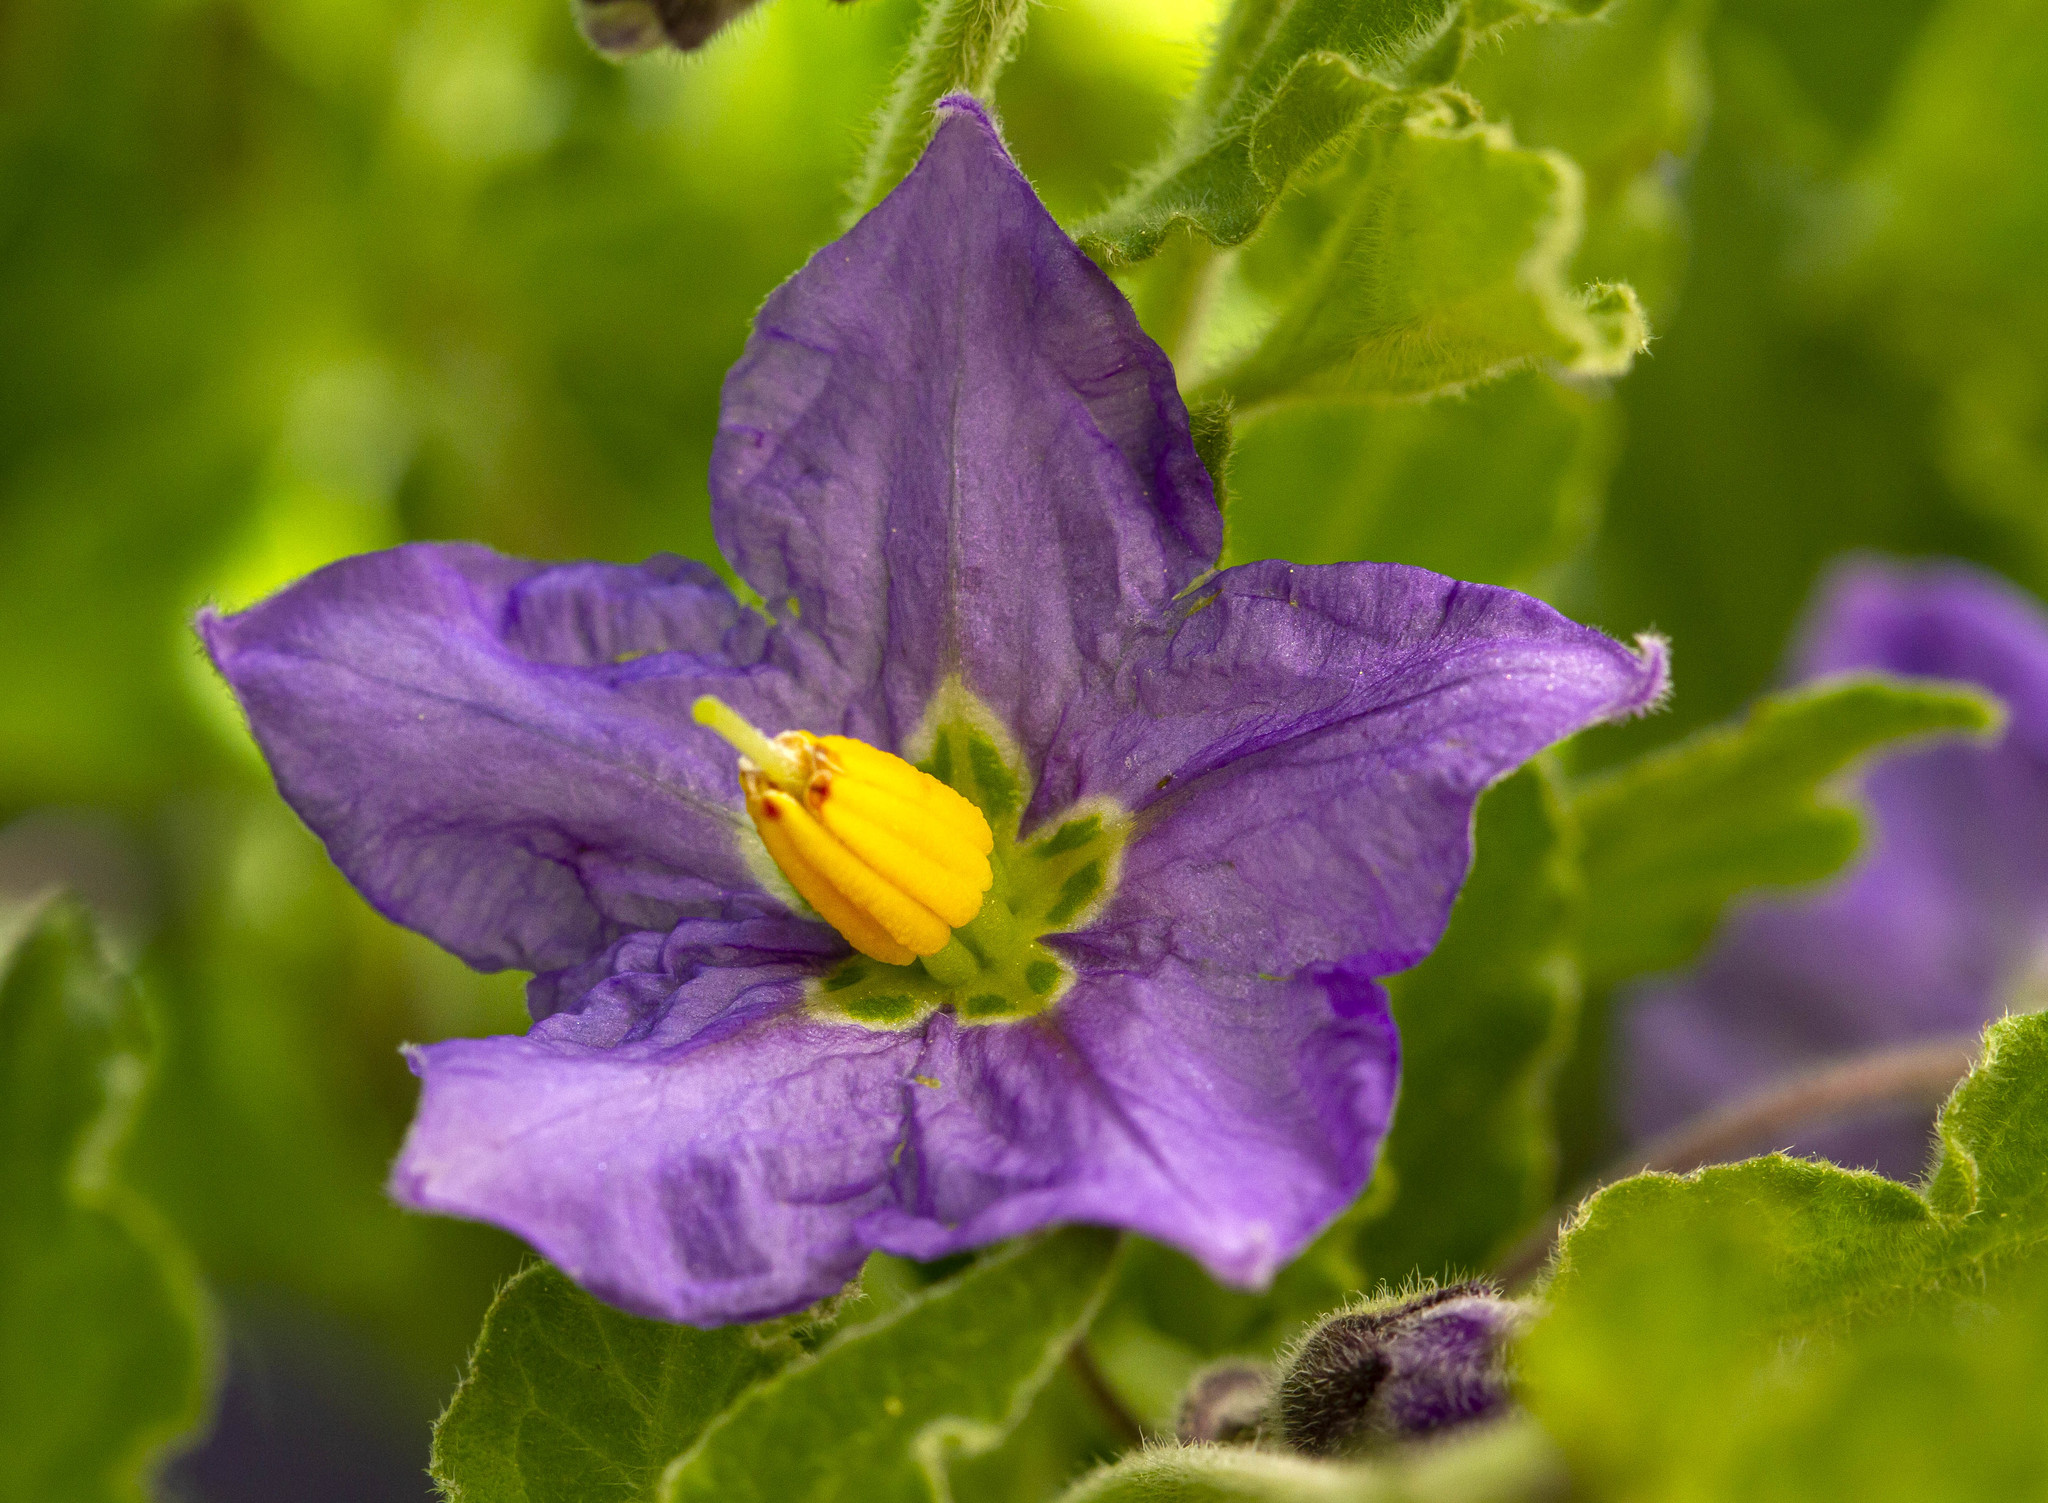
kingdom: Plantae
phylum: Tracheophyta
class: Magnoliopsida
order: Solanales
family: Solanaceae
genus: Solanum
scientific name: Solanum umbelliferum
